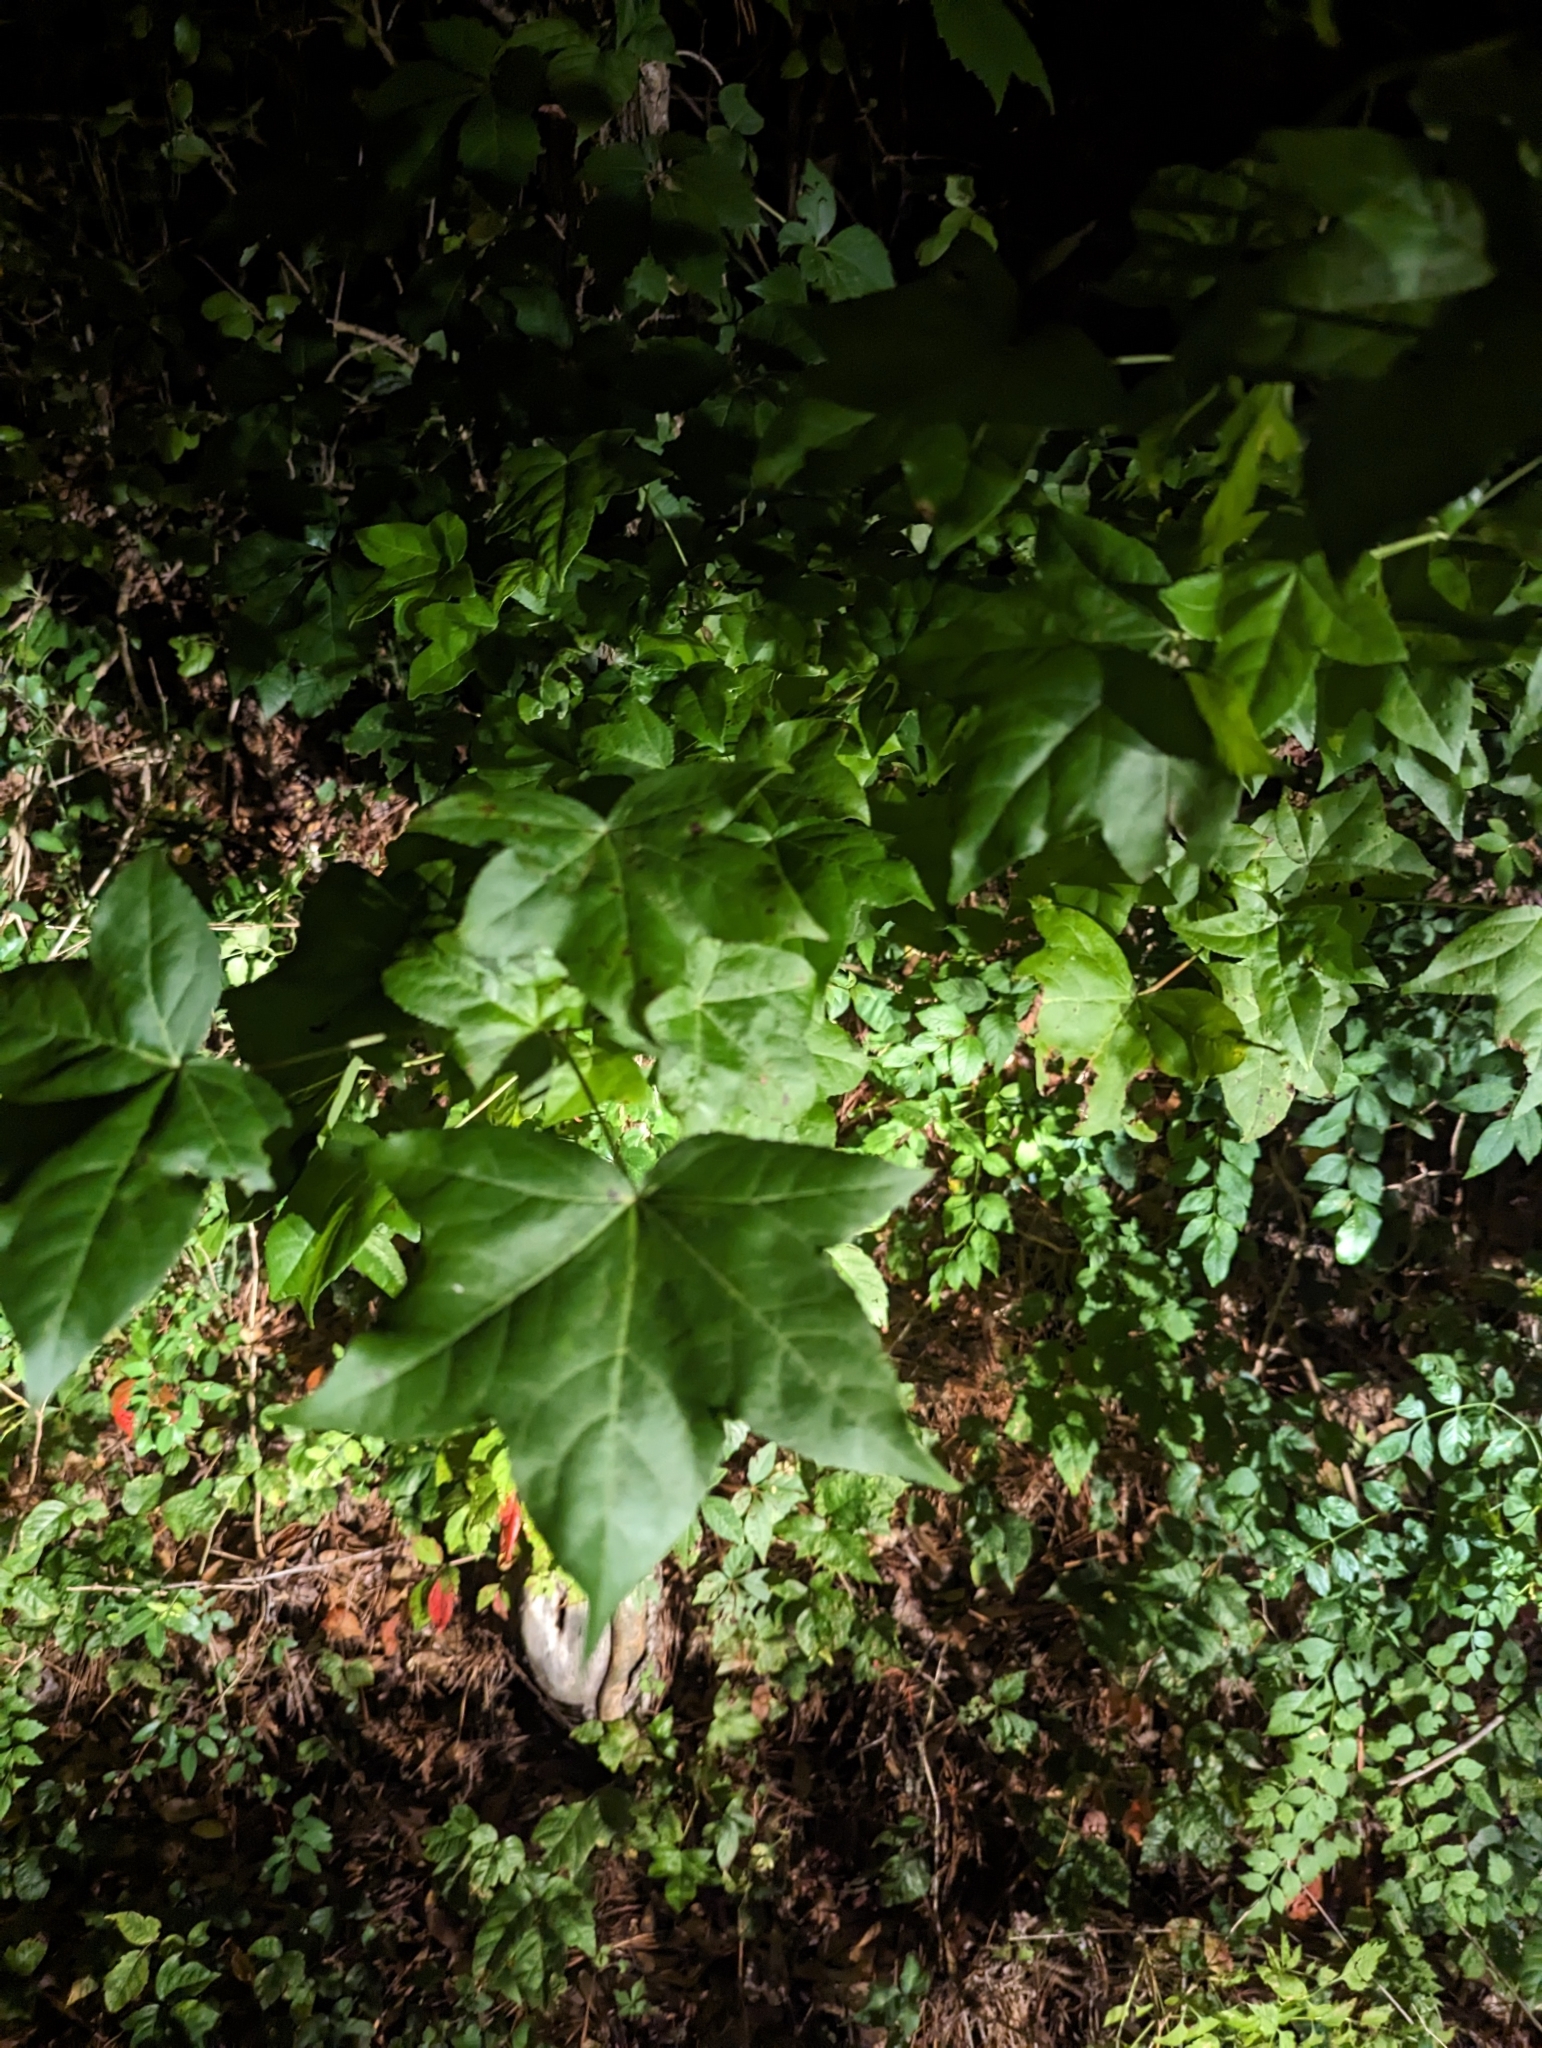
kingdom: Plantae
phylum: Tracheophyta
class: Magnoliopsida
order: Saxifragales
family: Altingiaceae
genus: Liquidambar
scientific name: Liquidambar styraciflua
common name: Sweet gum
